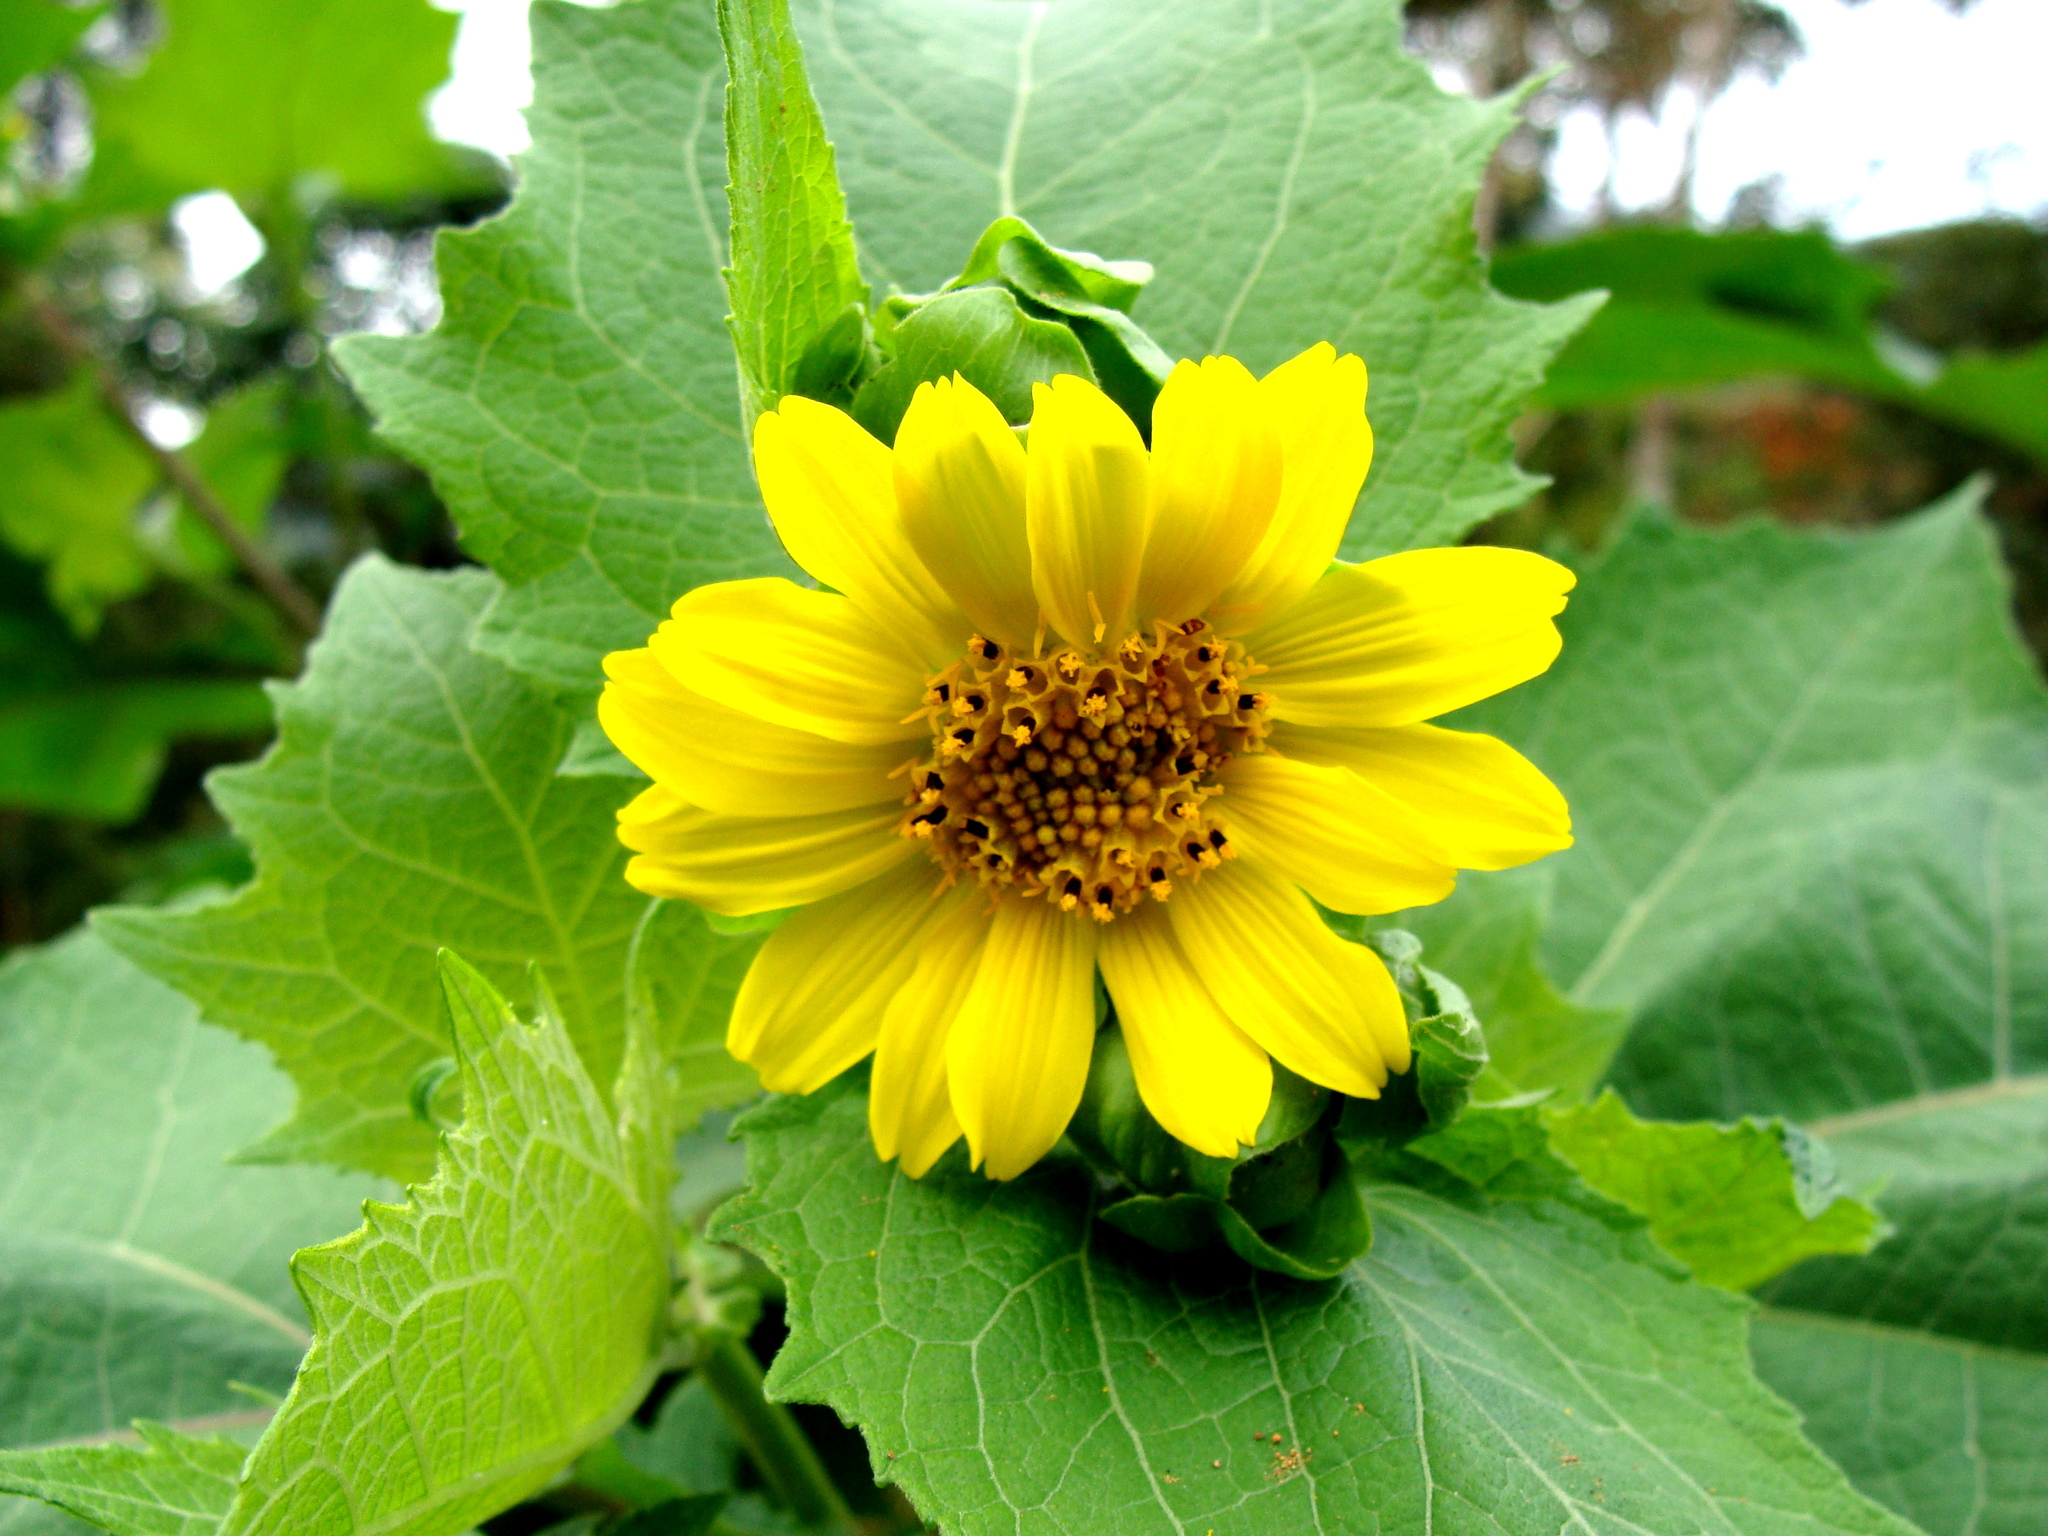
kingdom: Plantae
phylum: Tracheophyta
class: Magnoliopsida
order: Asterales
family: Asteraceae
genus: Smallanthus
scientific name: Smallanthus maculatus
